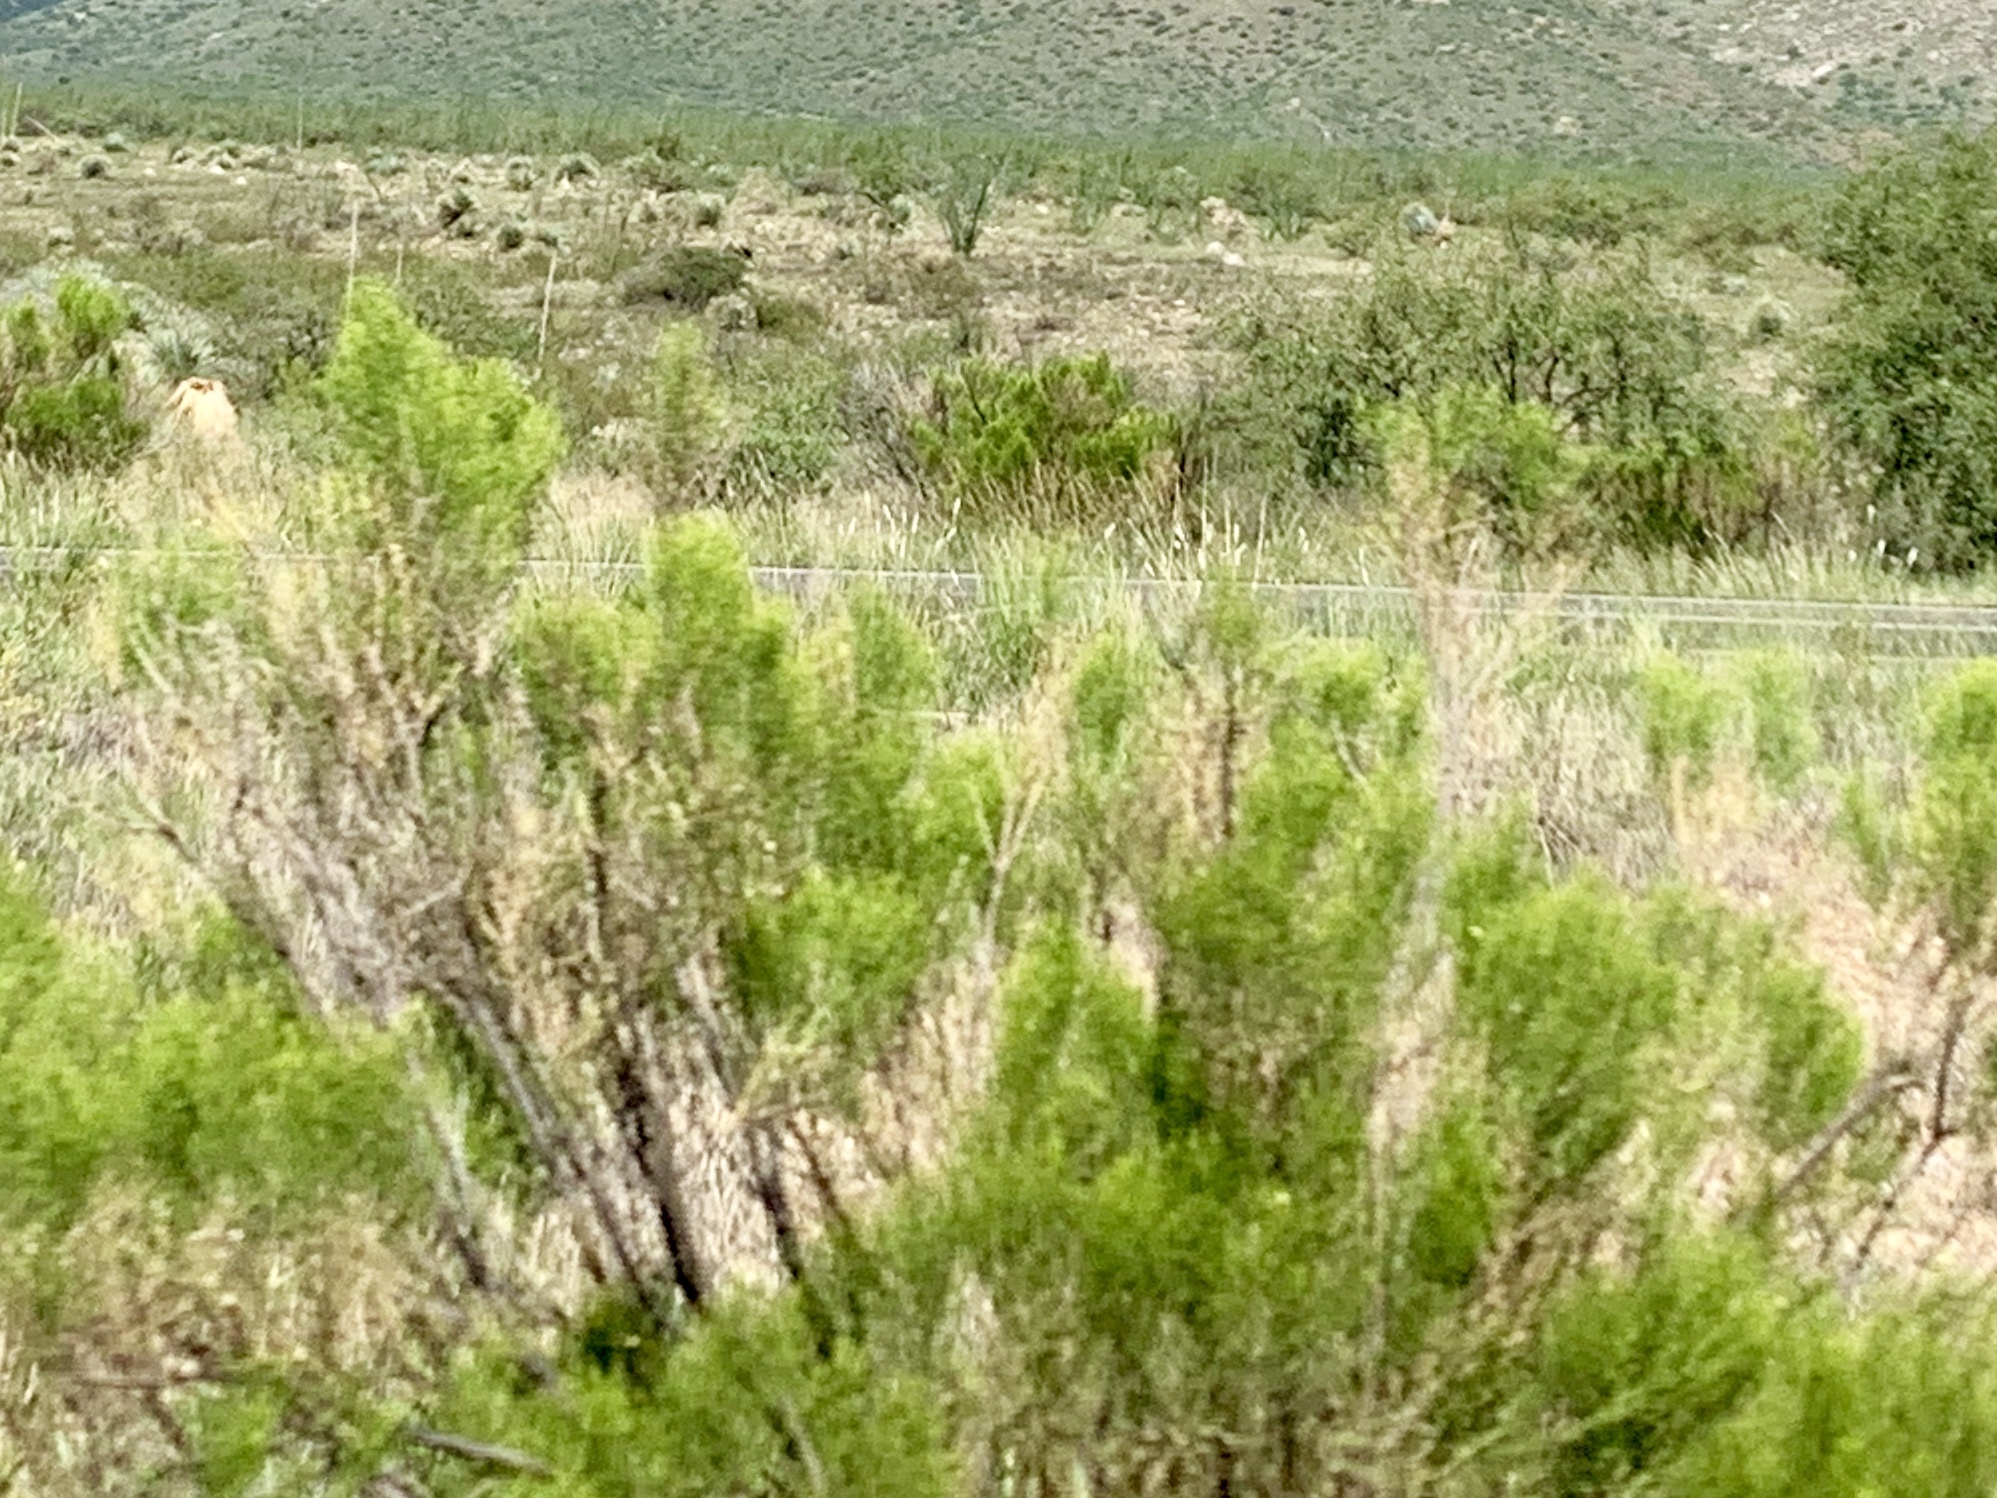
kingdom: Plantae
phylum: Tracheophyta
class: Magnoliopsida
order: Asterales
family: Asteraceae
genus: Baccharis
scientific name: Baccharis sarothroides
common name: Desert-broom
